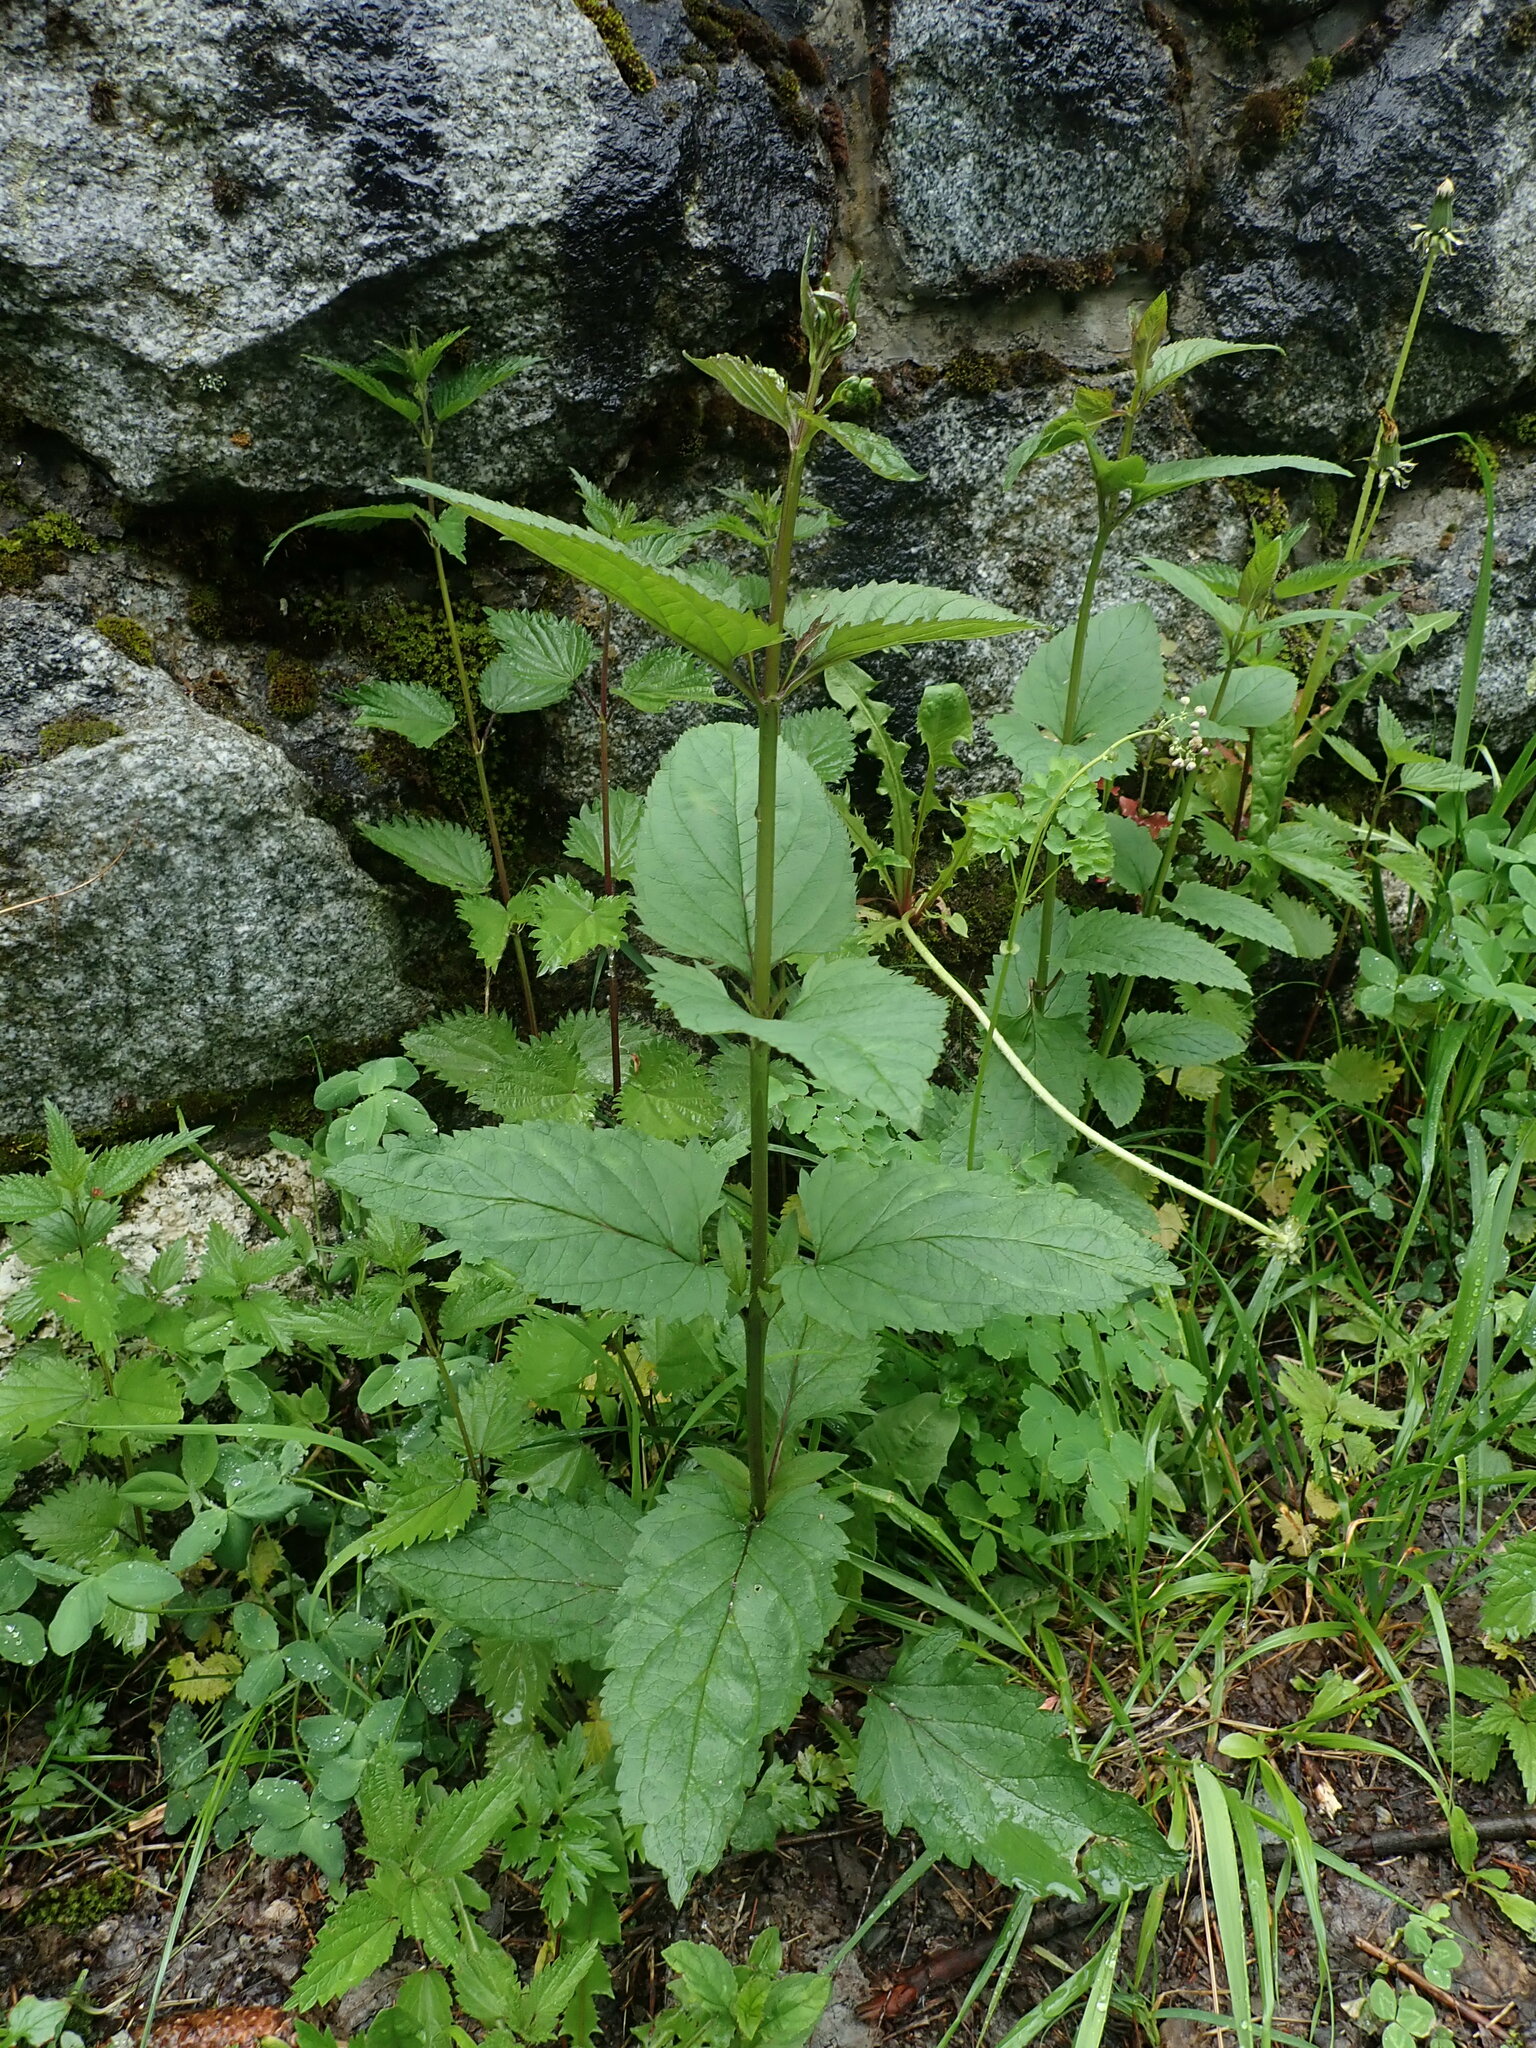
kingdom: Plantae
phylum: Tracheophyta
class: Magnoliopsida
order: Lamiales
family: Scrophulariaceae
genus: Scrophularia
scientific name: Scrophularia nodosa
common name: Common figwort
